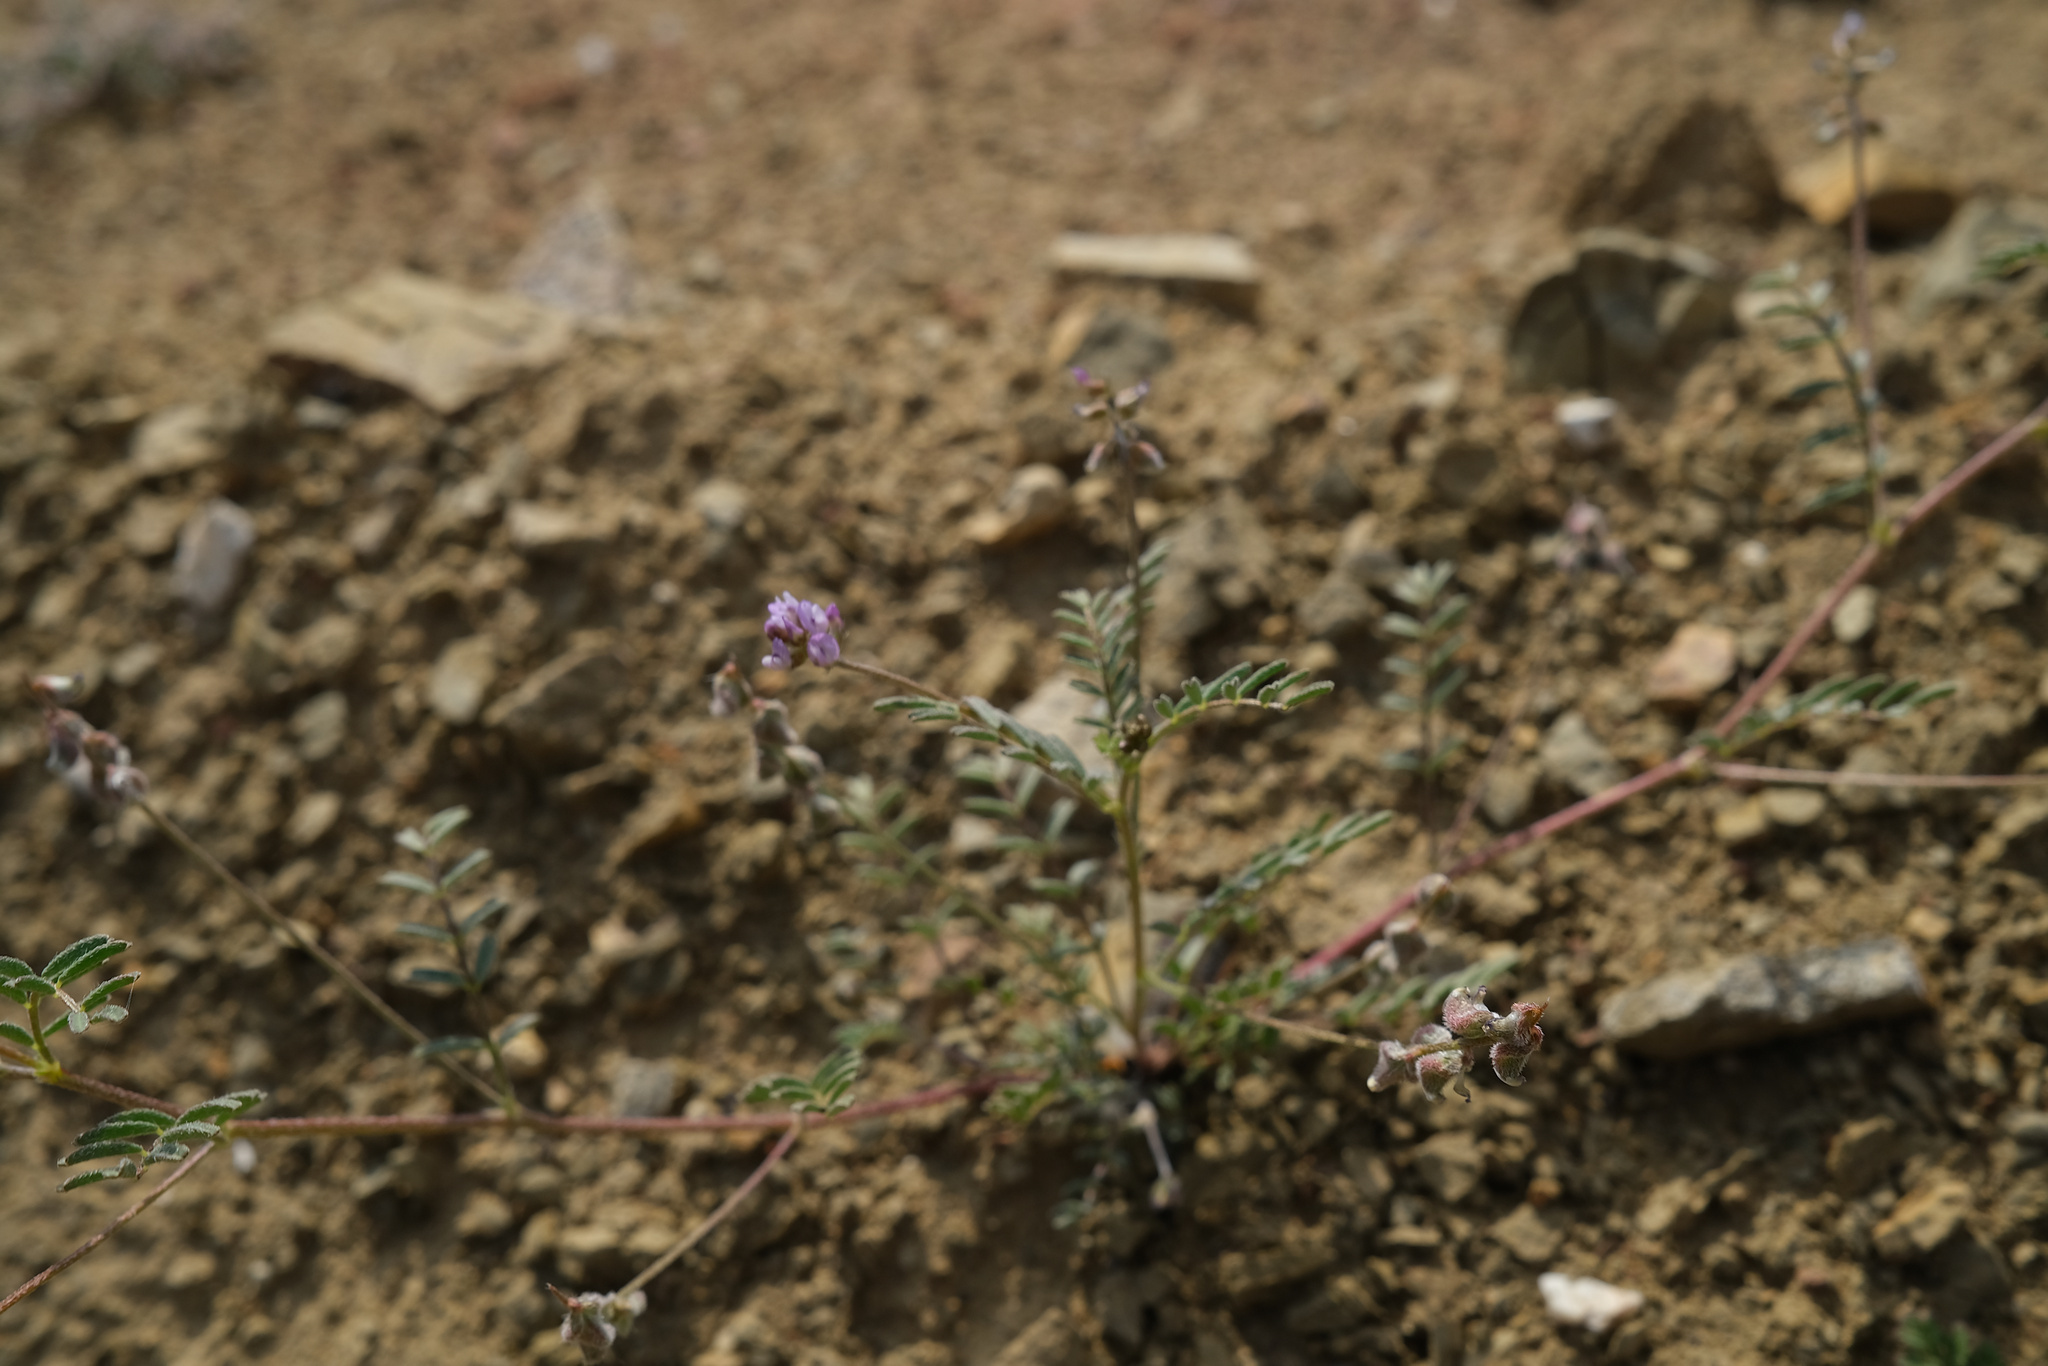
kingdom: Plantae
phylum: Tracheophyta
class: Magnoliopsida
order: Fabales
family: Fabaceae
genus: Astragalus
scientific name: Astragalus gambelianus
